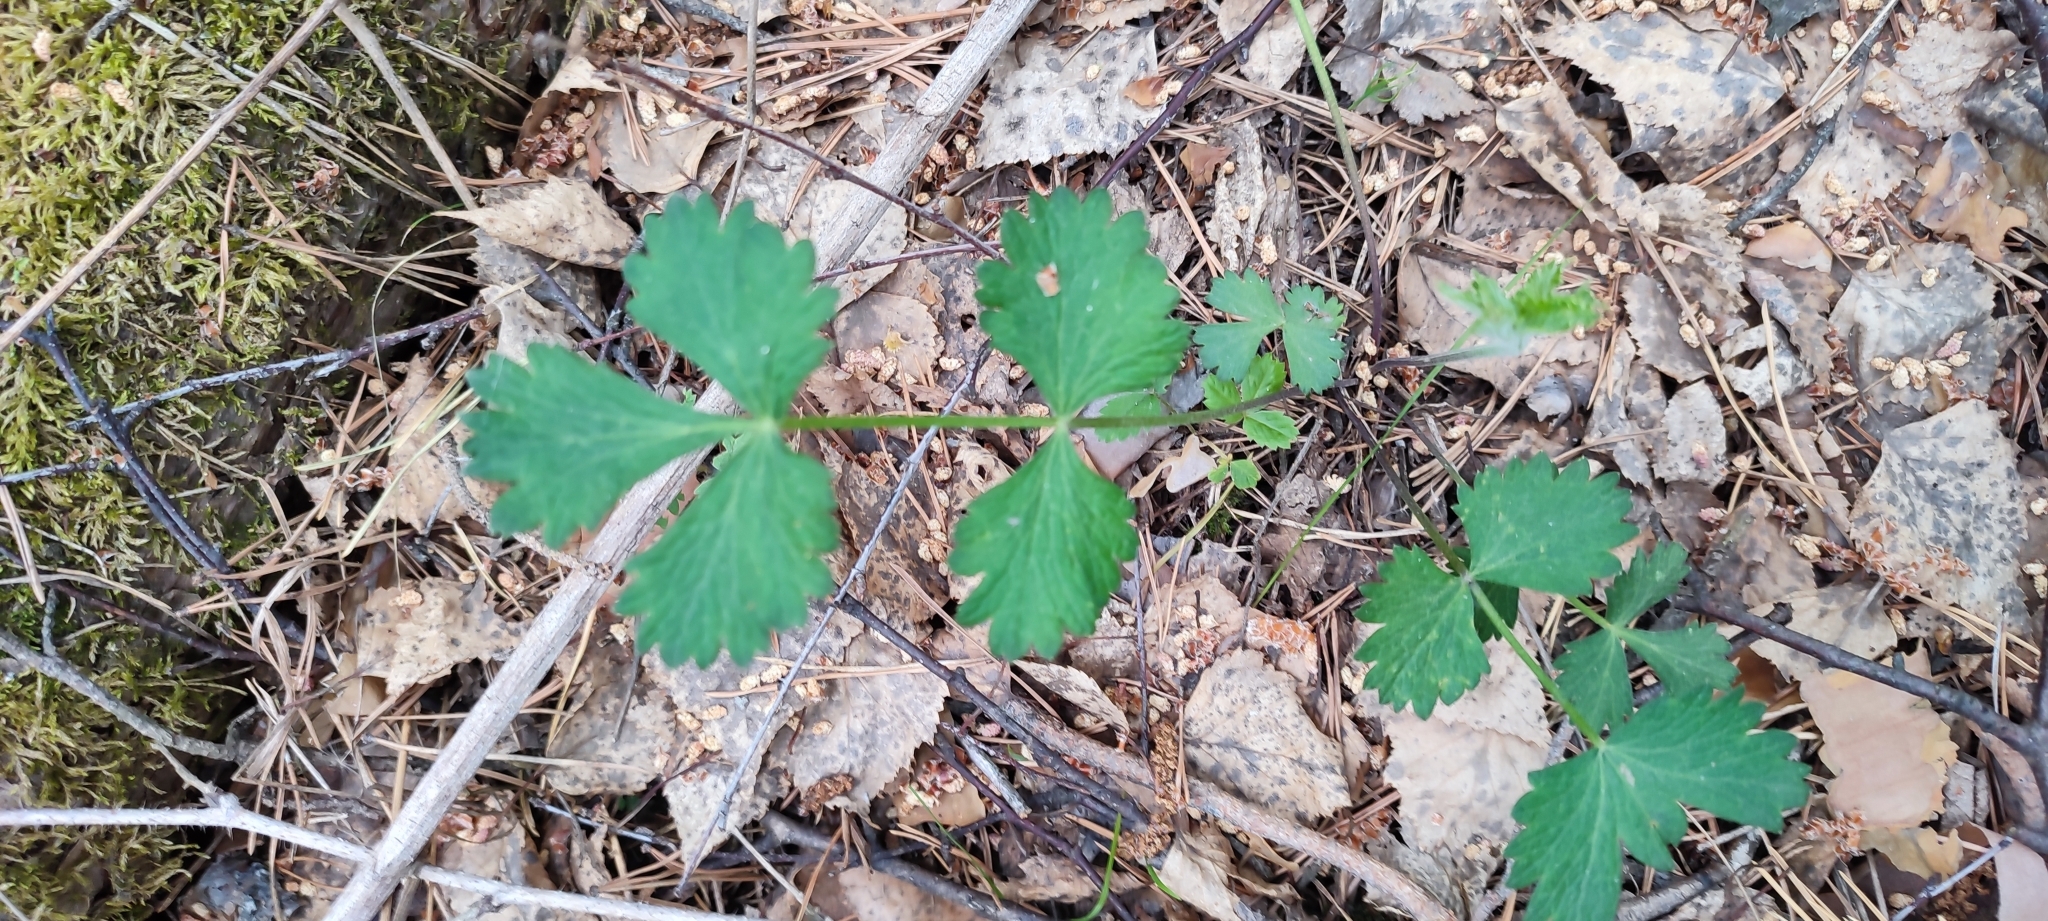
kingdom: Plantae
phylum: Tracheophyta
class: Magnoliopsida
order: Rosales
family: Rosaceae
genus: Agrimonia
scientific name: Agrimonia pilosa
